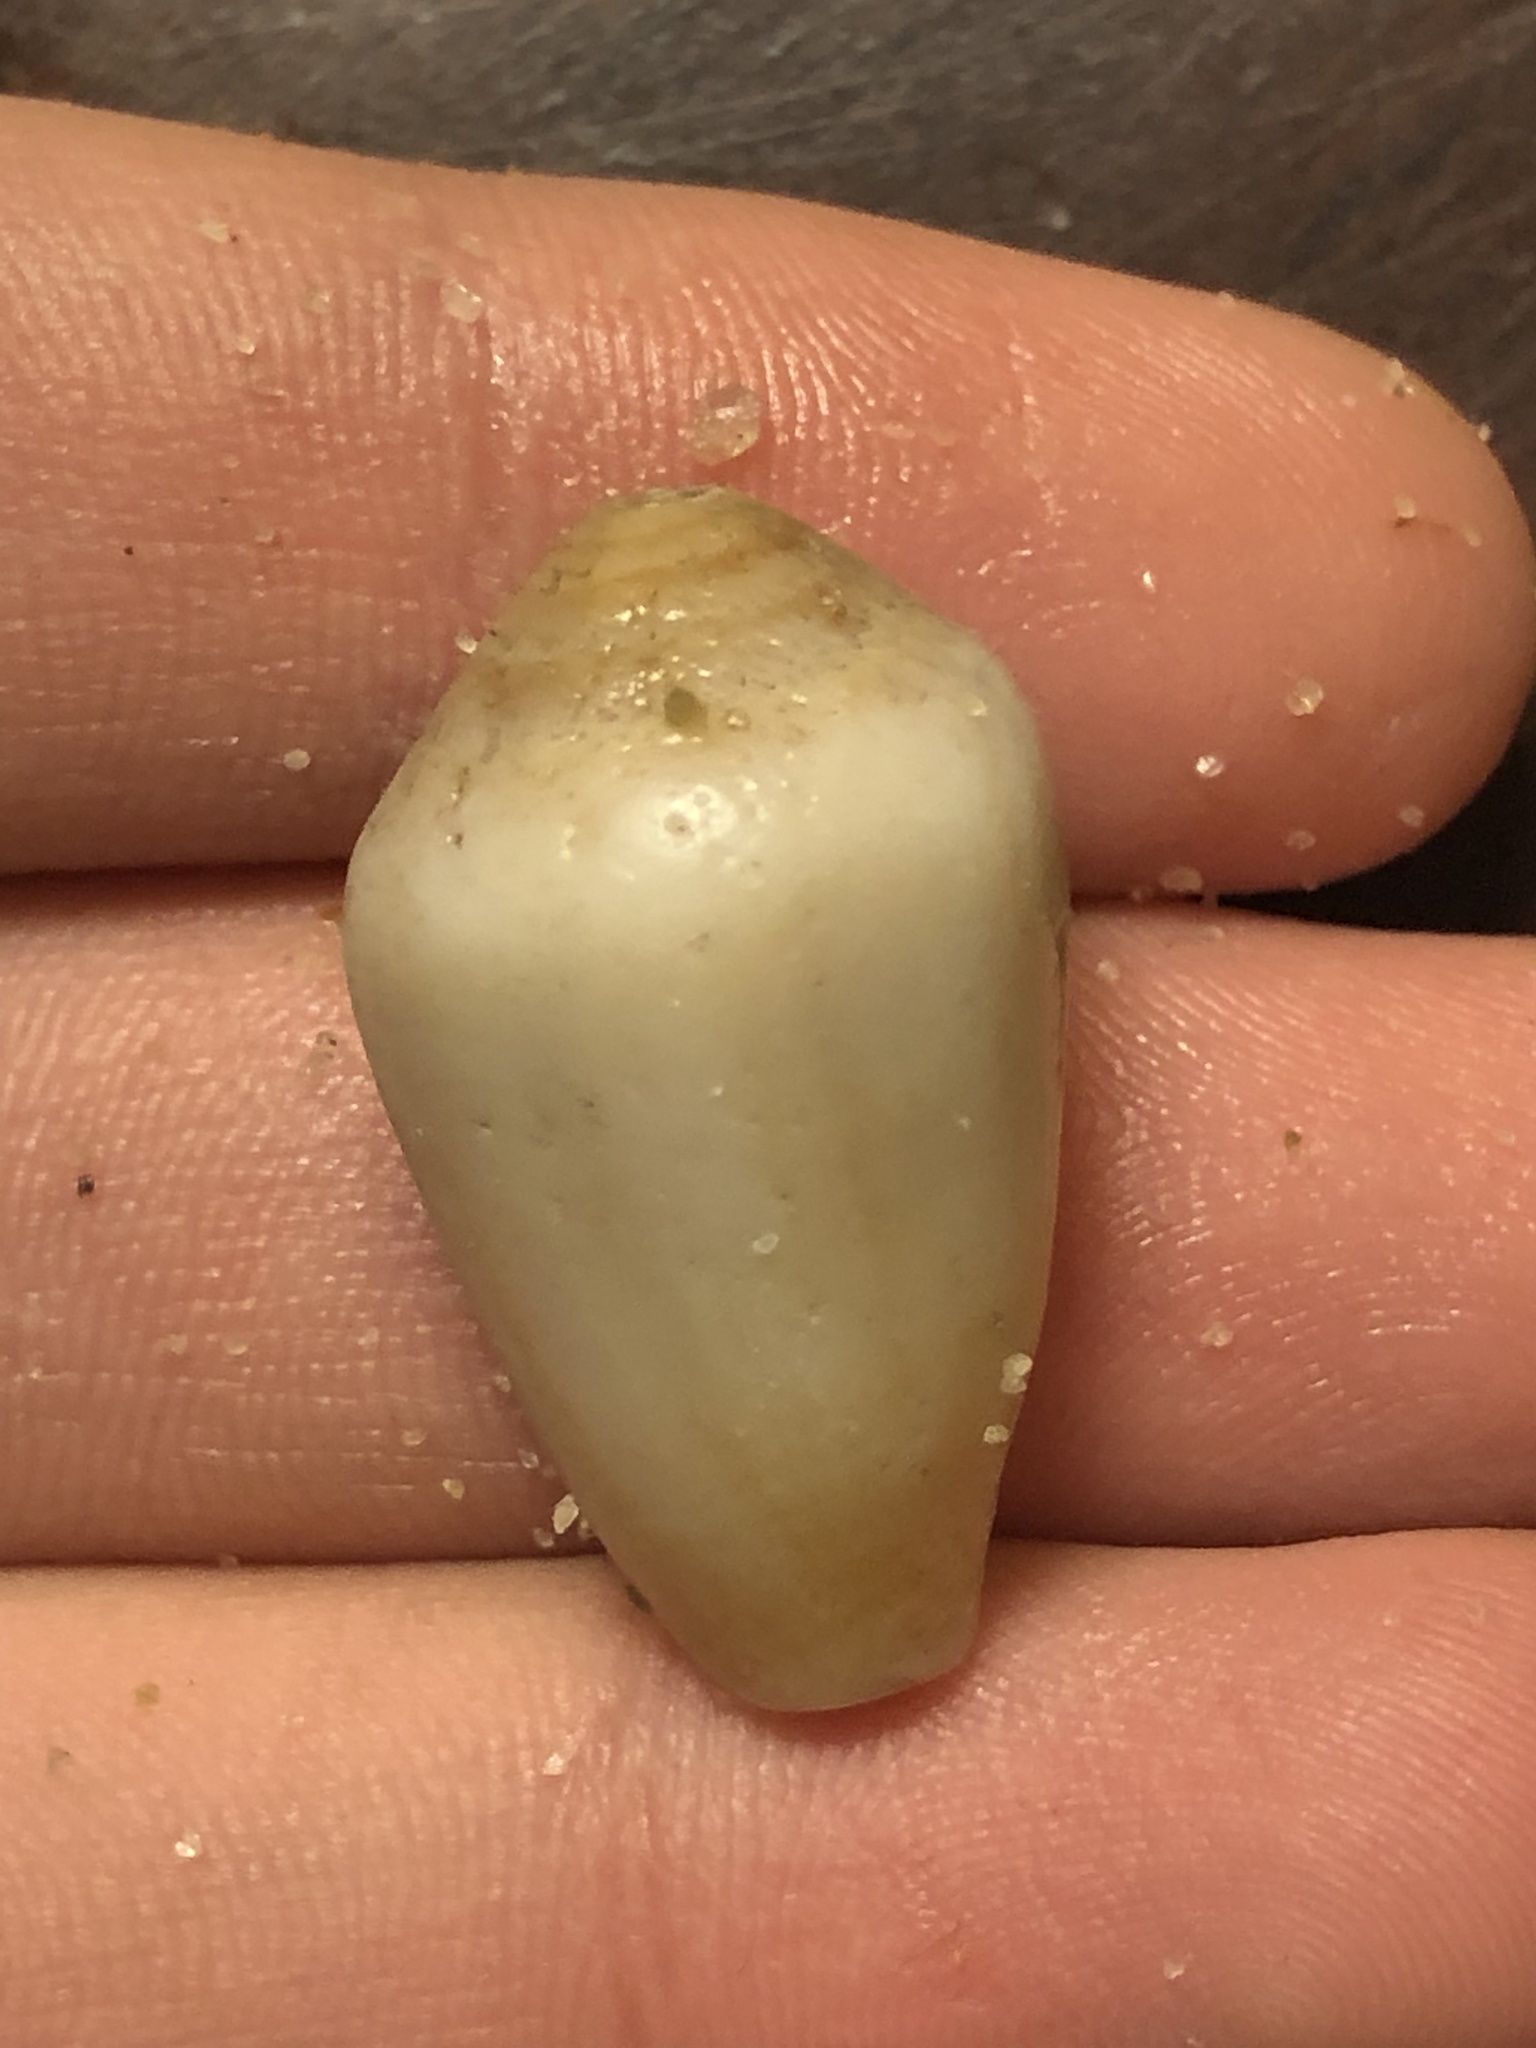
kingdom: Animalia
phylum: Mollusca
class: Gastropoda
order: Neogastropoda
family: Conidae
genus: Californiconus
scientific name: Californiconus californicus
